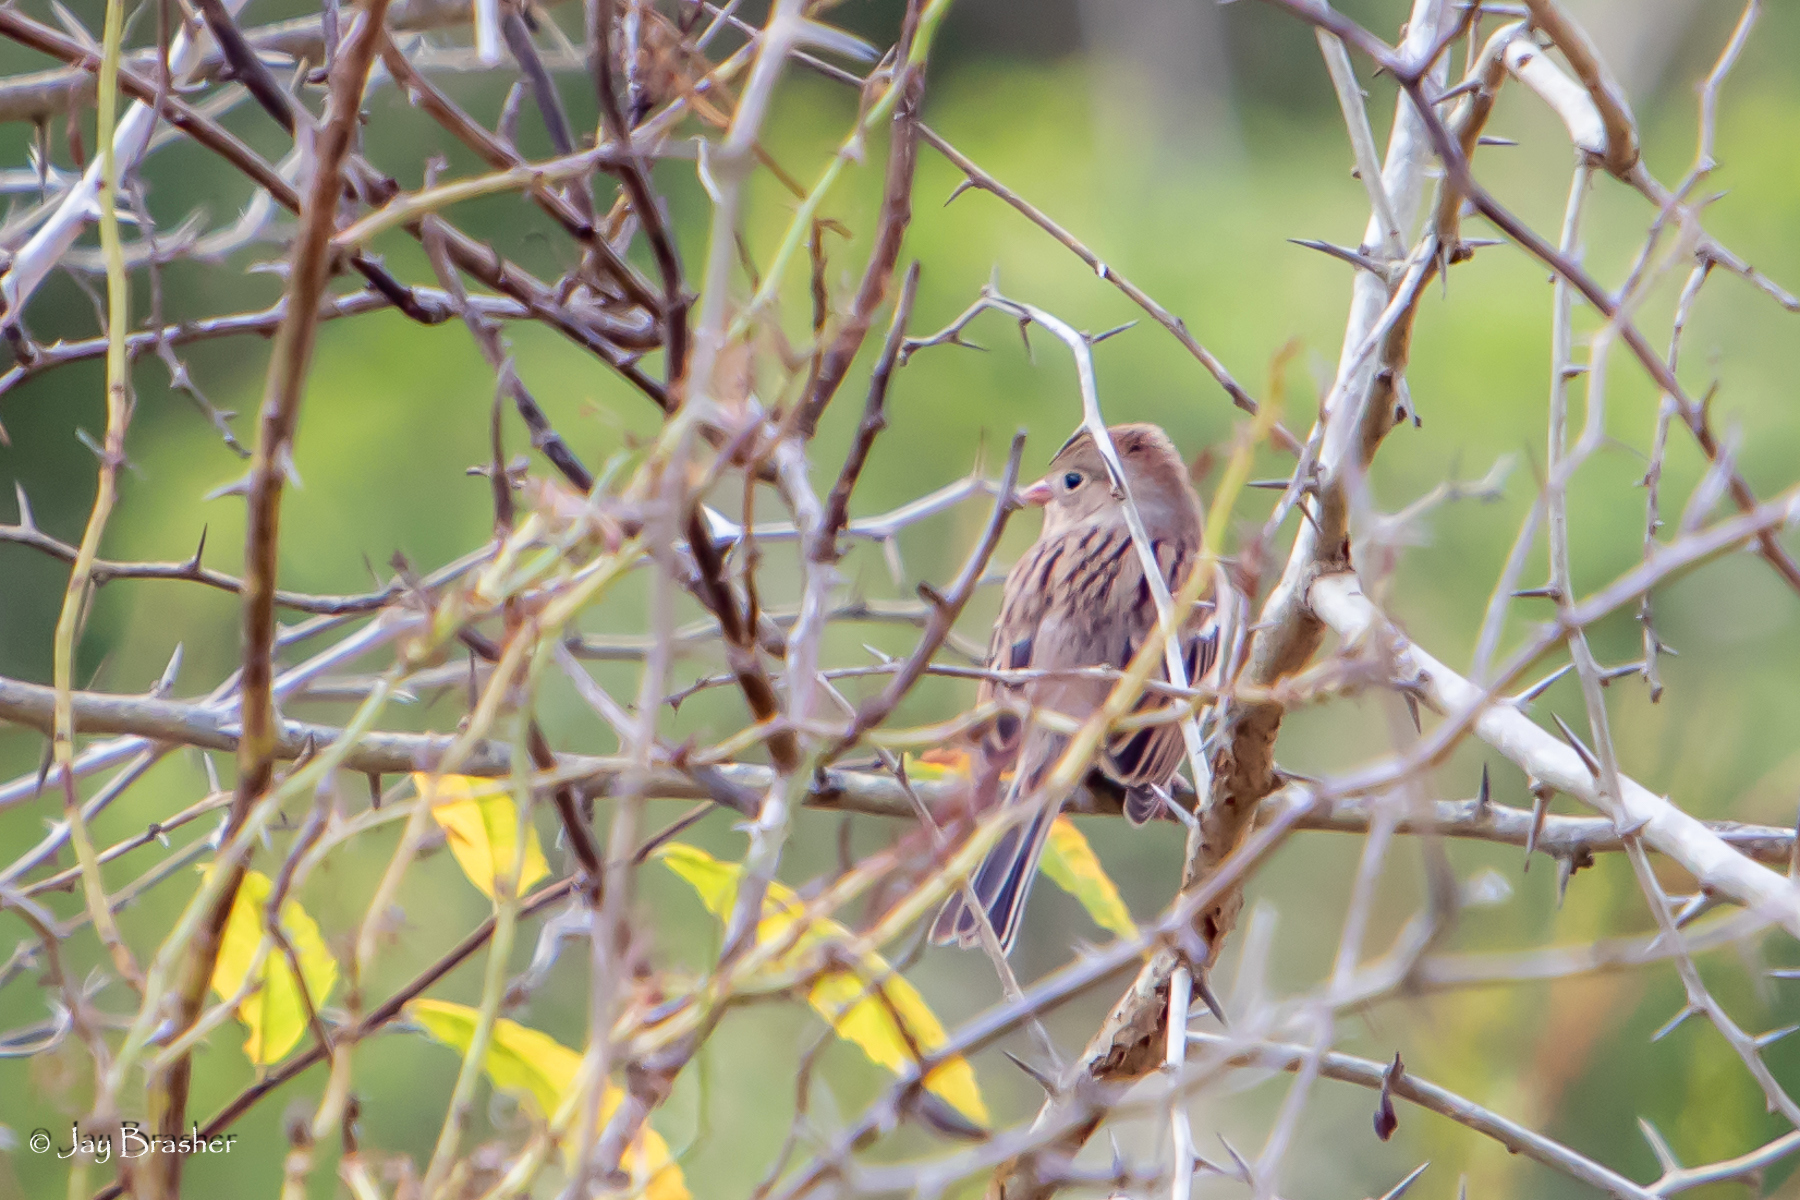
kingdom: Animalia
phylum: Chordata
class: Aves
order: Passeriformes
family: Passerellidae
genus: Spizella
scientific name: Spizella pusilla
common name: Field sparrow
